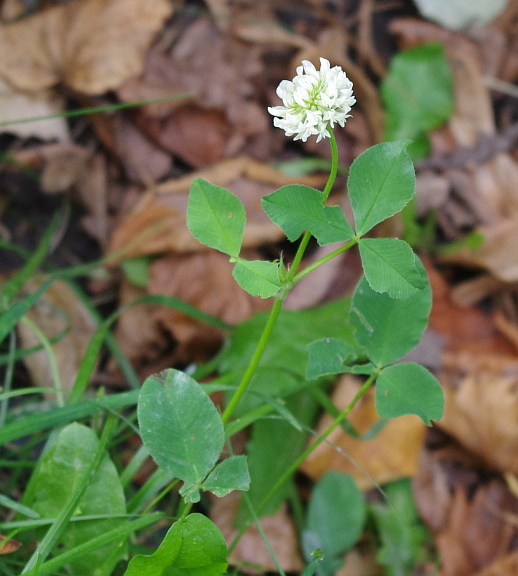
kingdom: Plantae
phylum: Tracheophyta
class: Magnoliopsida
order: Fabales
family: Fabaceae
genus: Trifolium
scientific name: Trifolium repens
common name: White clover
